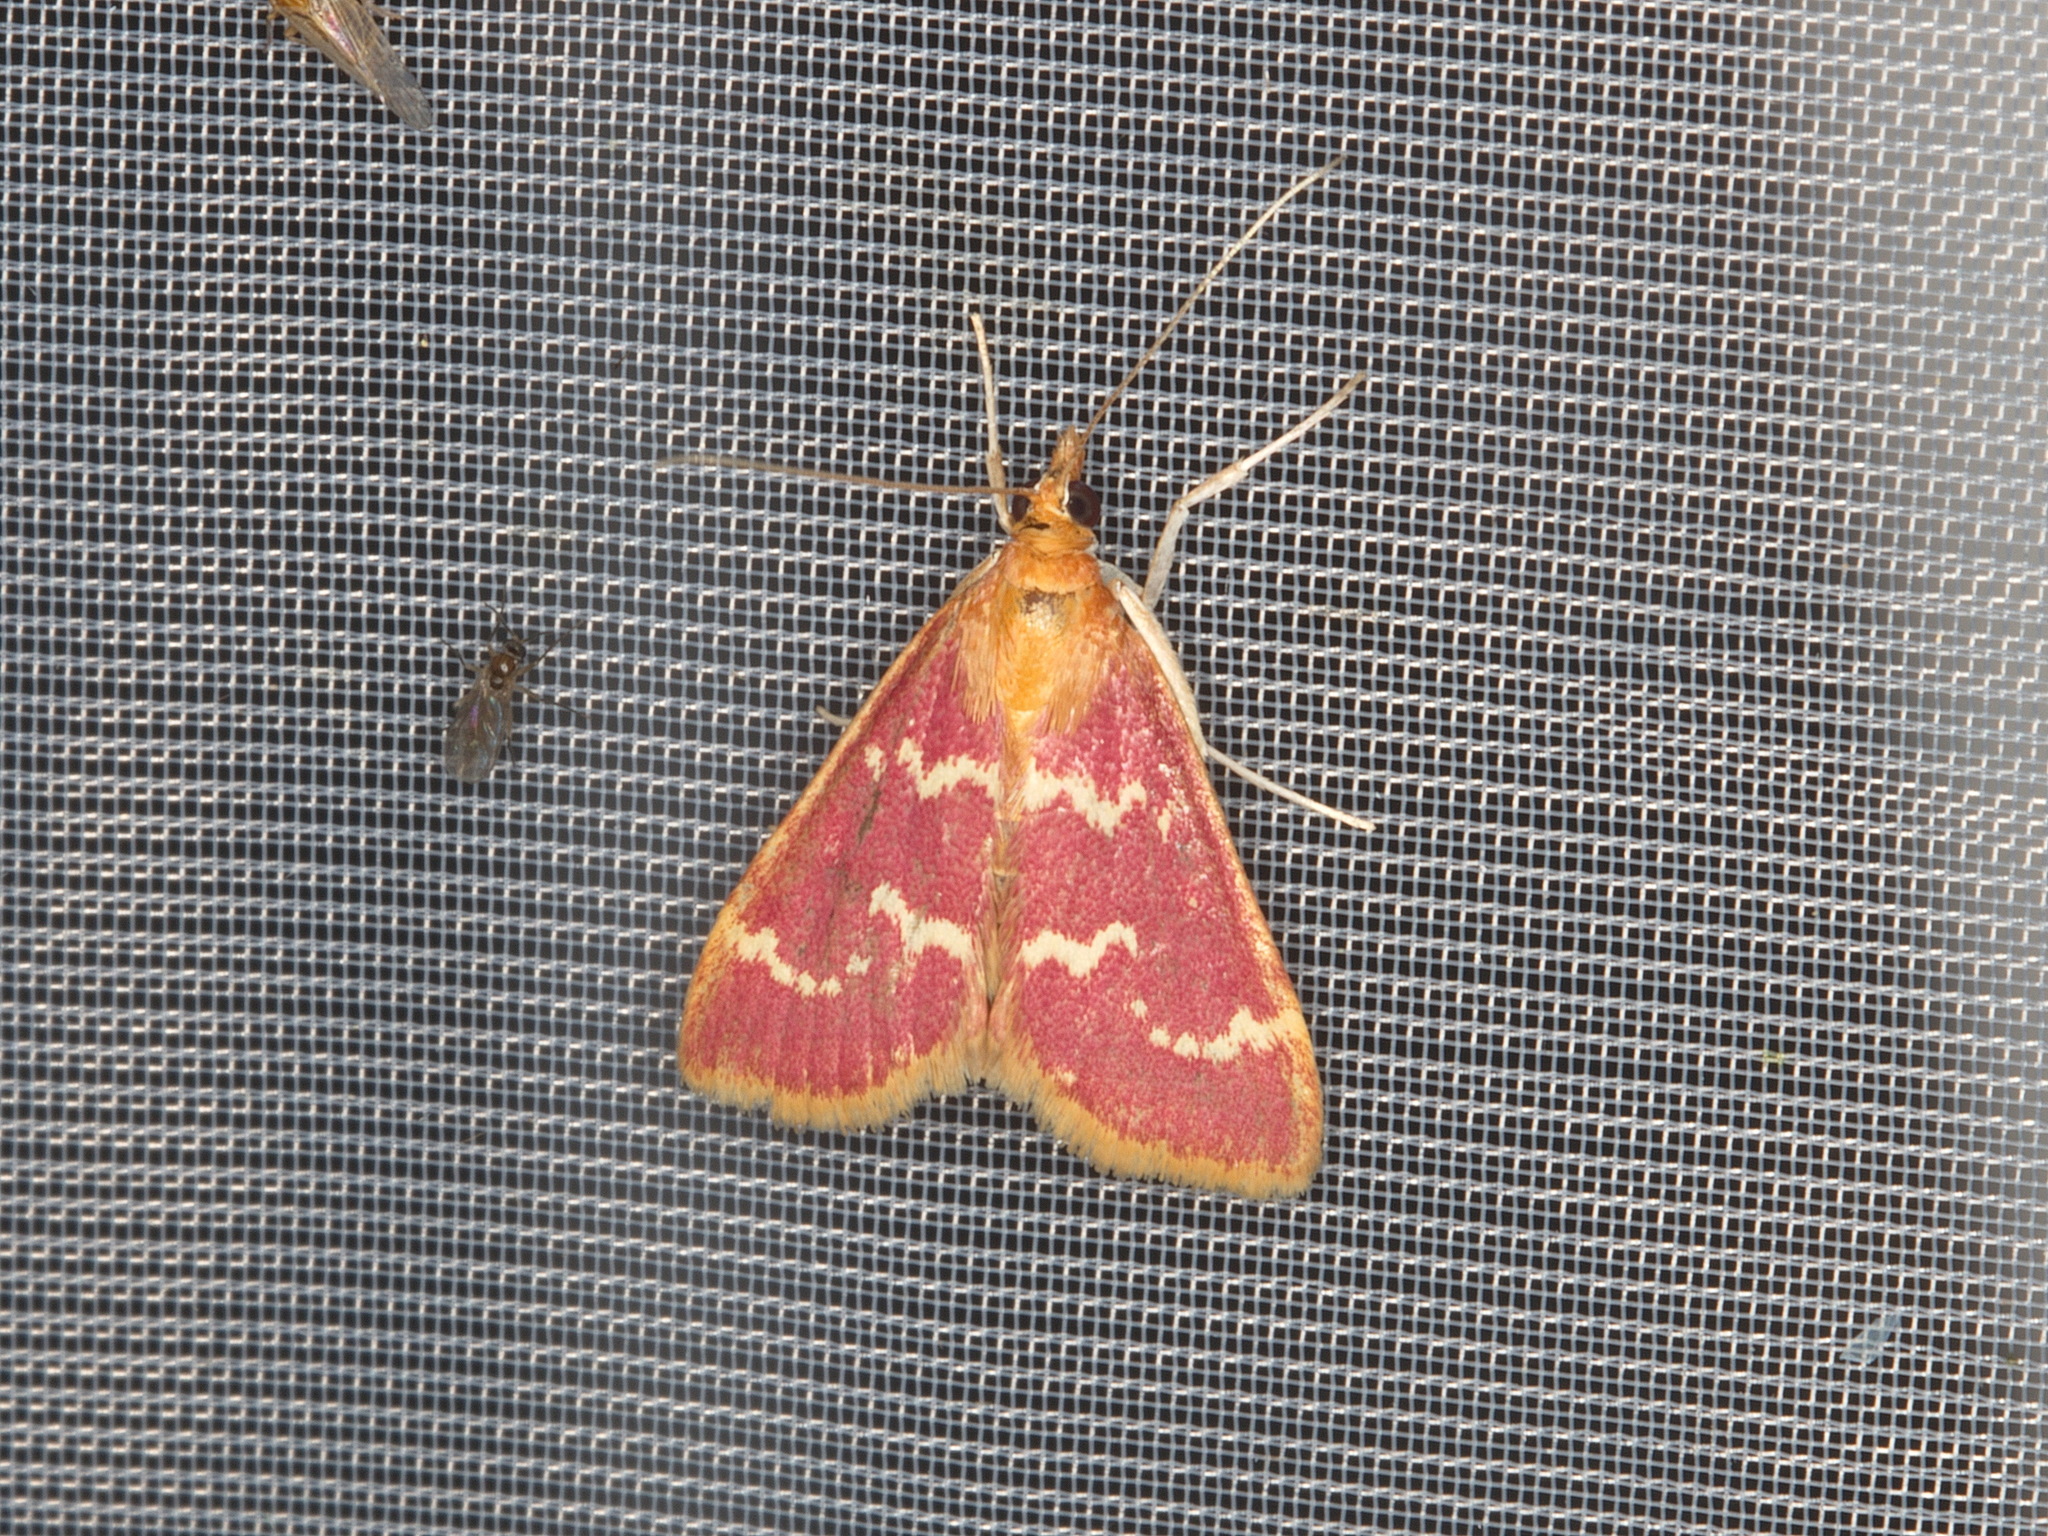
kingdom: Animalia
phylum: Arthropoda
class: Insecta
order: Lepidoptera
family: Crambidae
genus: Pyrausta
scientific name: Pyrausta signatalis
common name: Raspberry pyrausta moth
